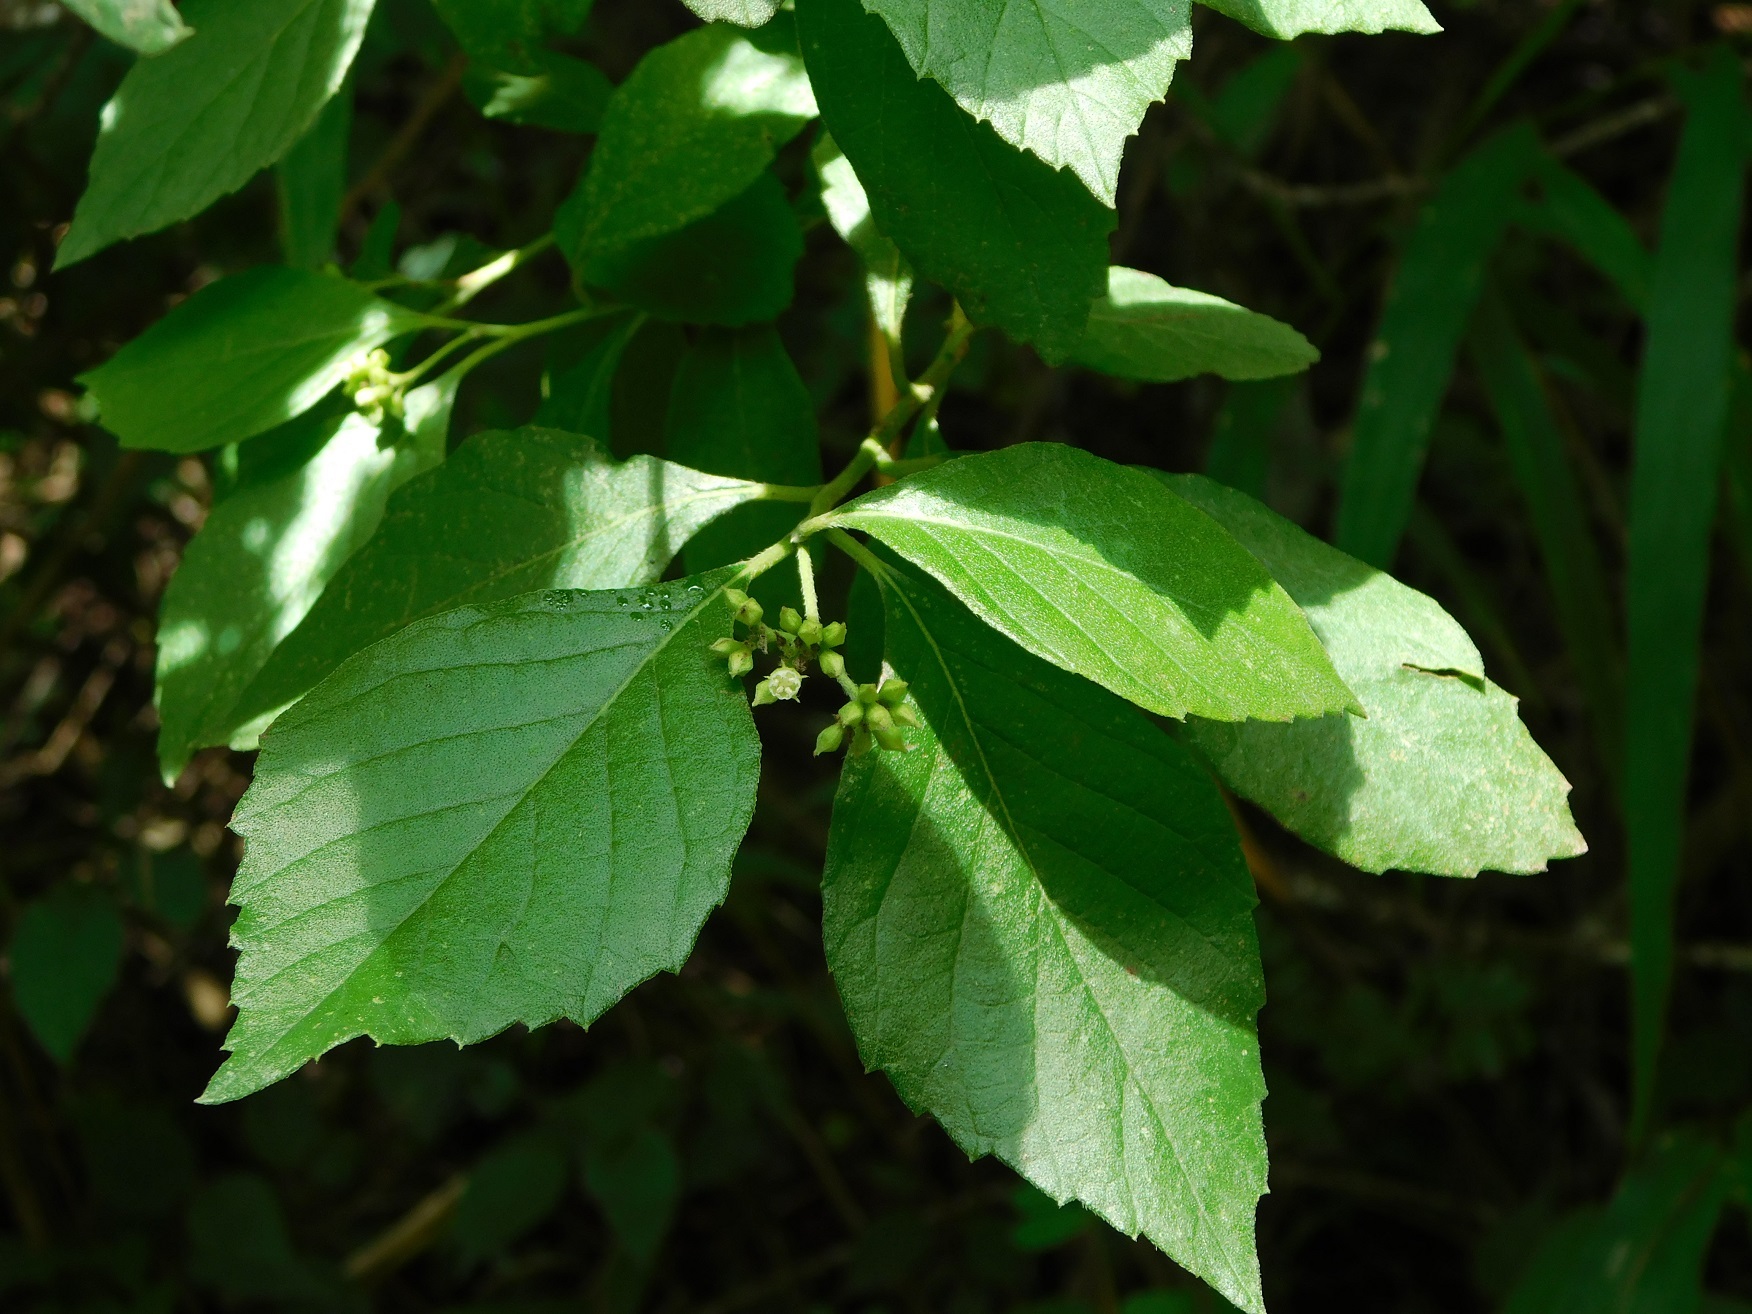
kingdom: Plantae
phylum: Tracheophyta
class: Magnoliopsida
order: Boraginales
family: Cordiaceae
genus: Varronia
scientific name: Varronia inermis
